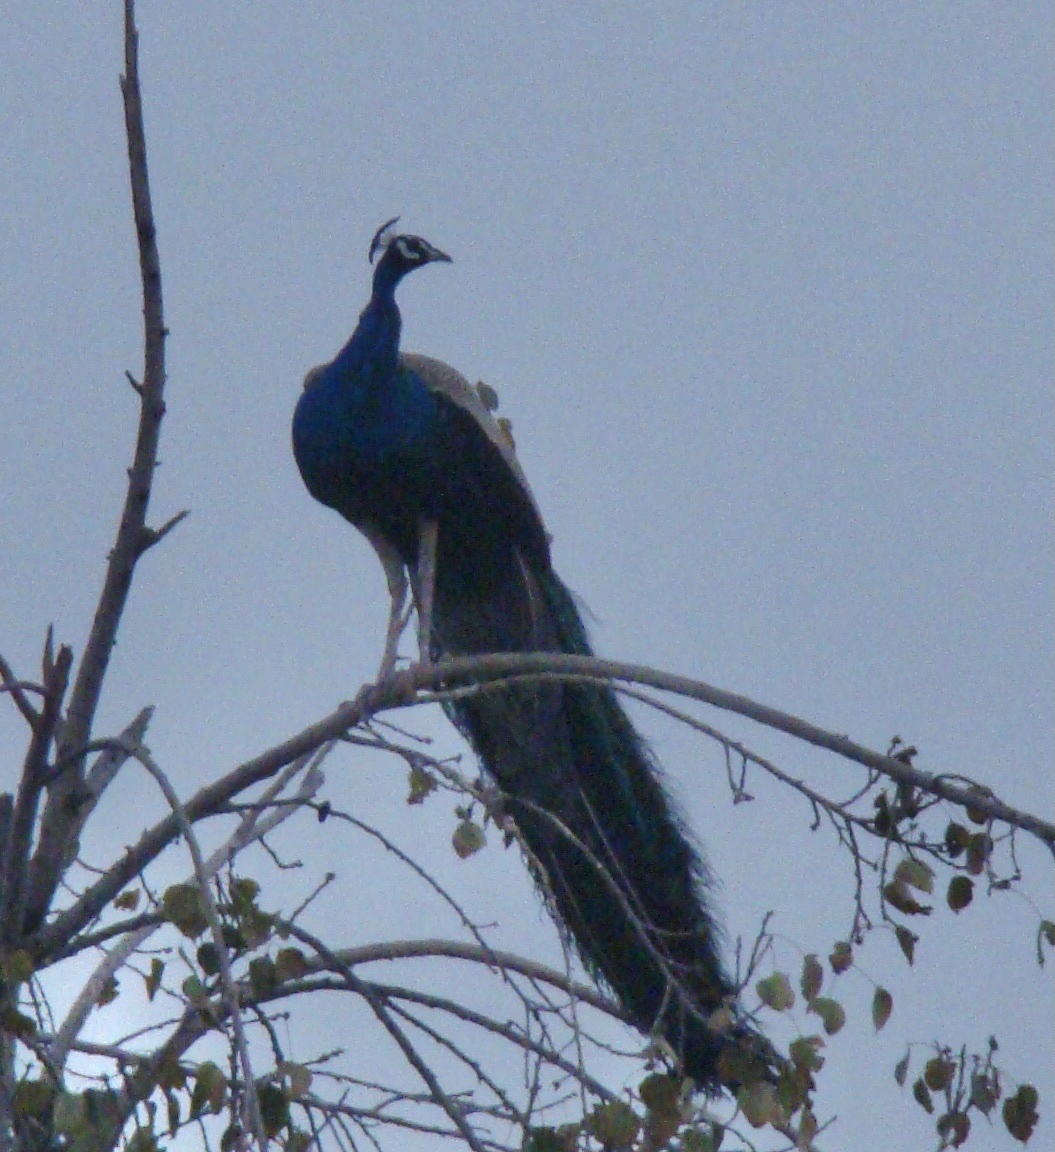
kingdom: Animalia
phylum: Chordata
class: Aves
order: Galliformes
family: Phasianidae
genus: Pavo
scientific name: Pavo cristatus
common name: Indian peafowl
